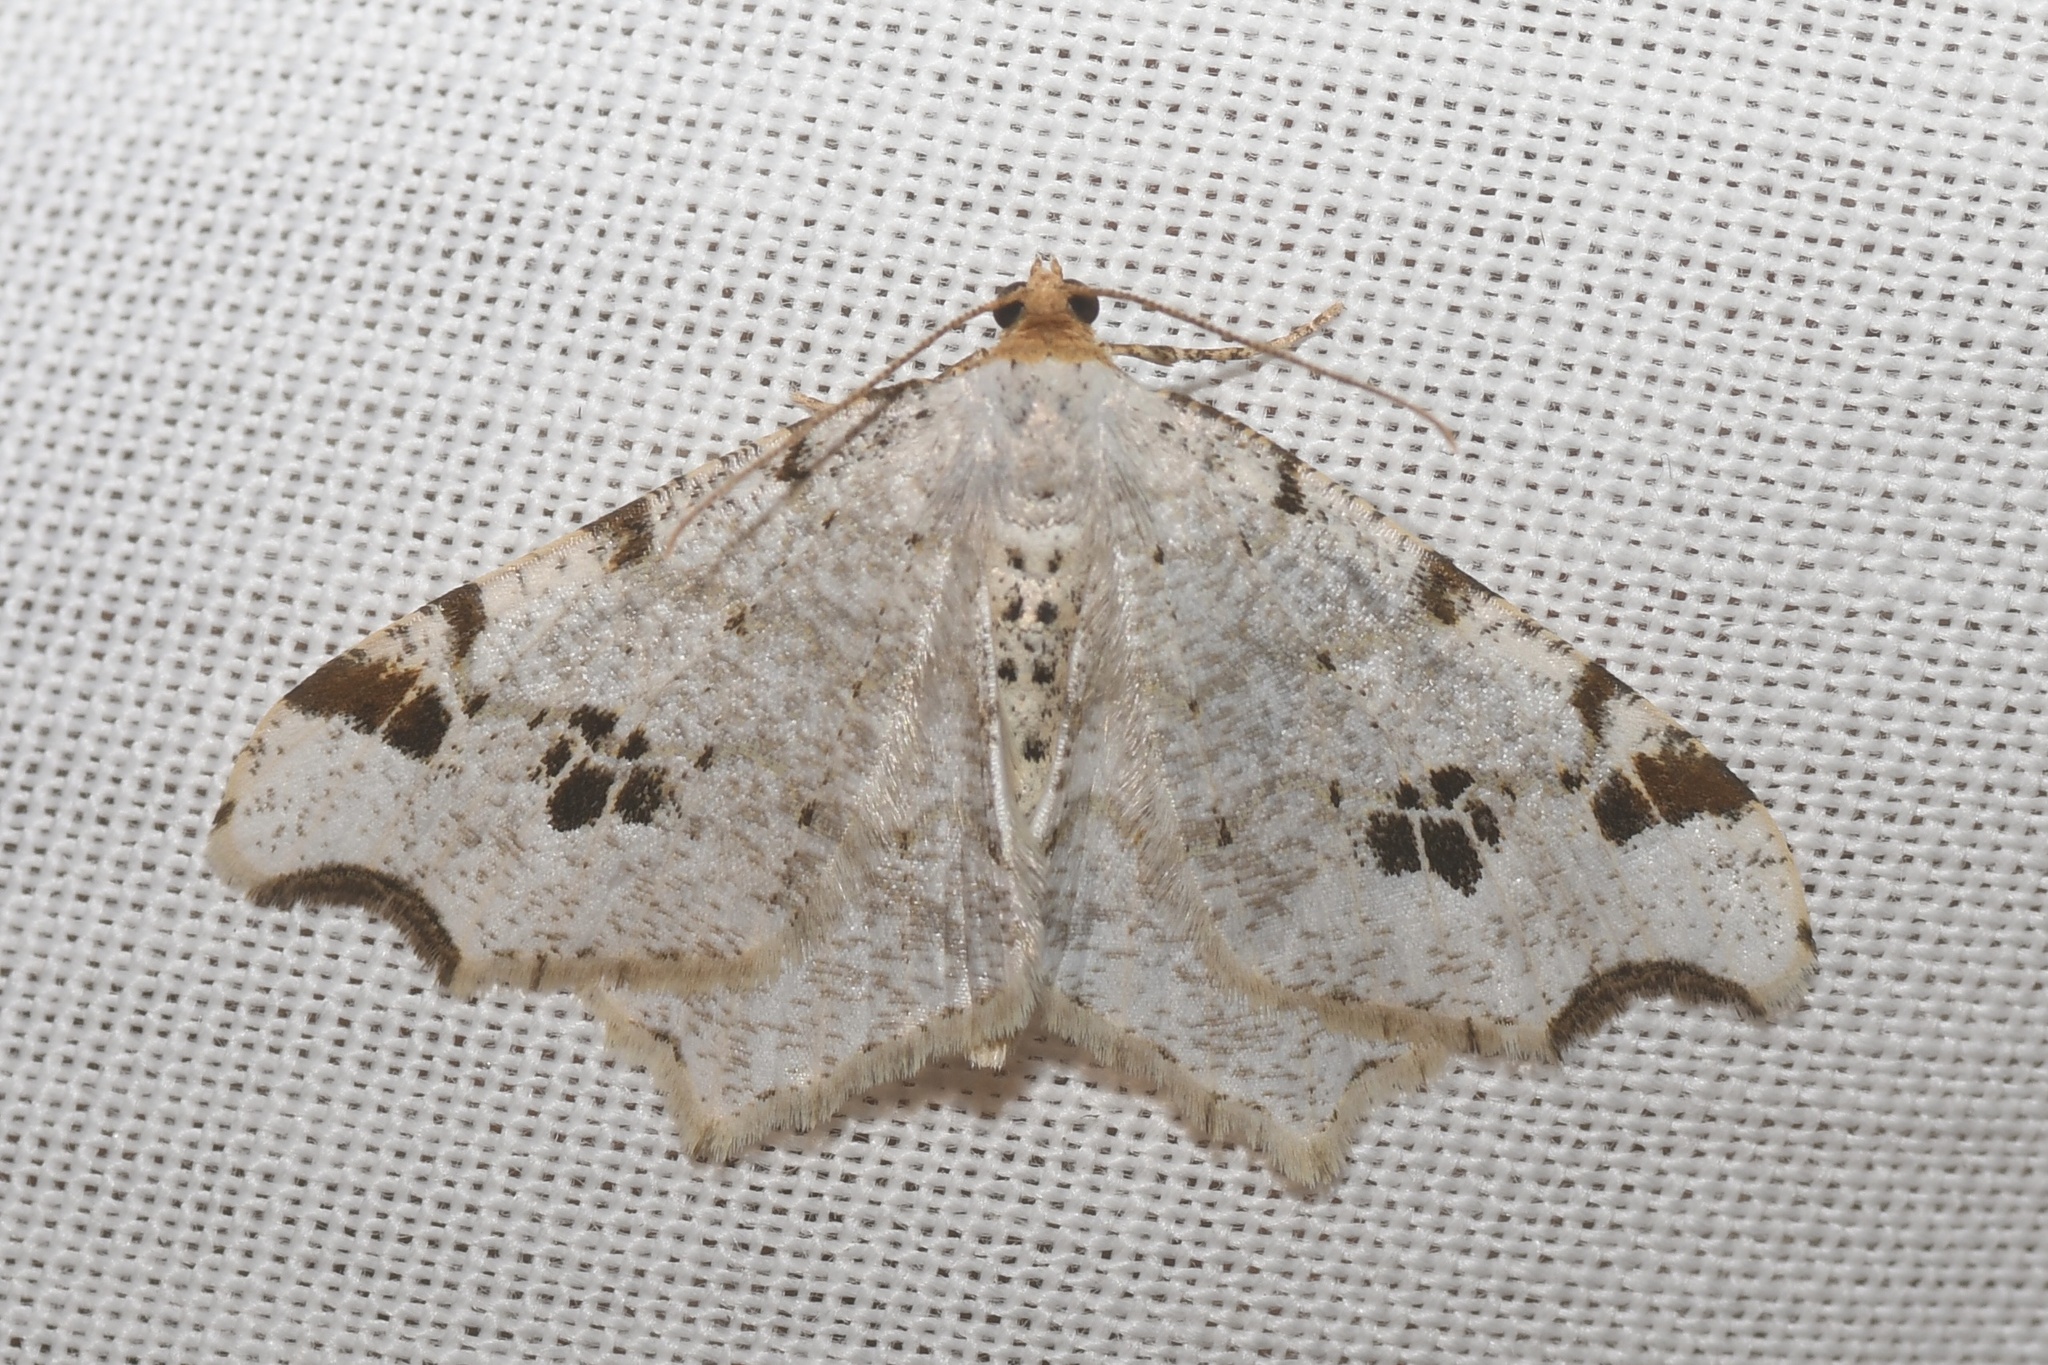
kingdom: Animalia
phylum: Arthropoda
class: Insecta
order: Lepidoptera
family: Geometridae
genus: Macaria
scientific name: Macaria ulsterata
